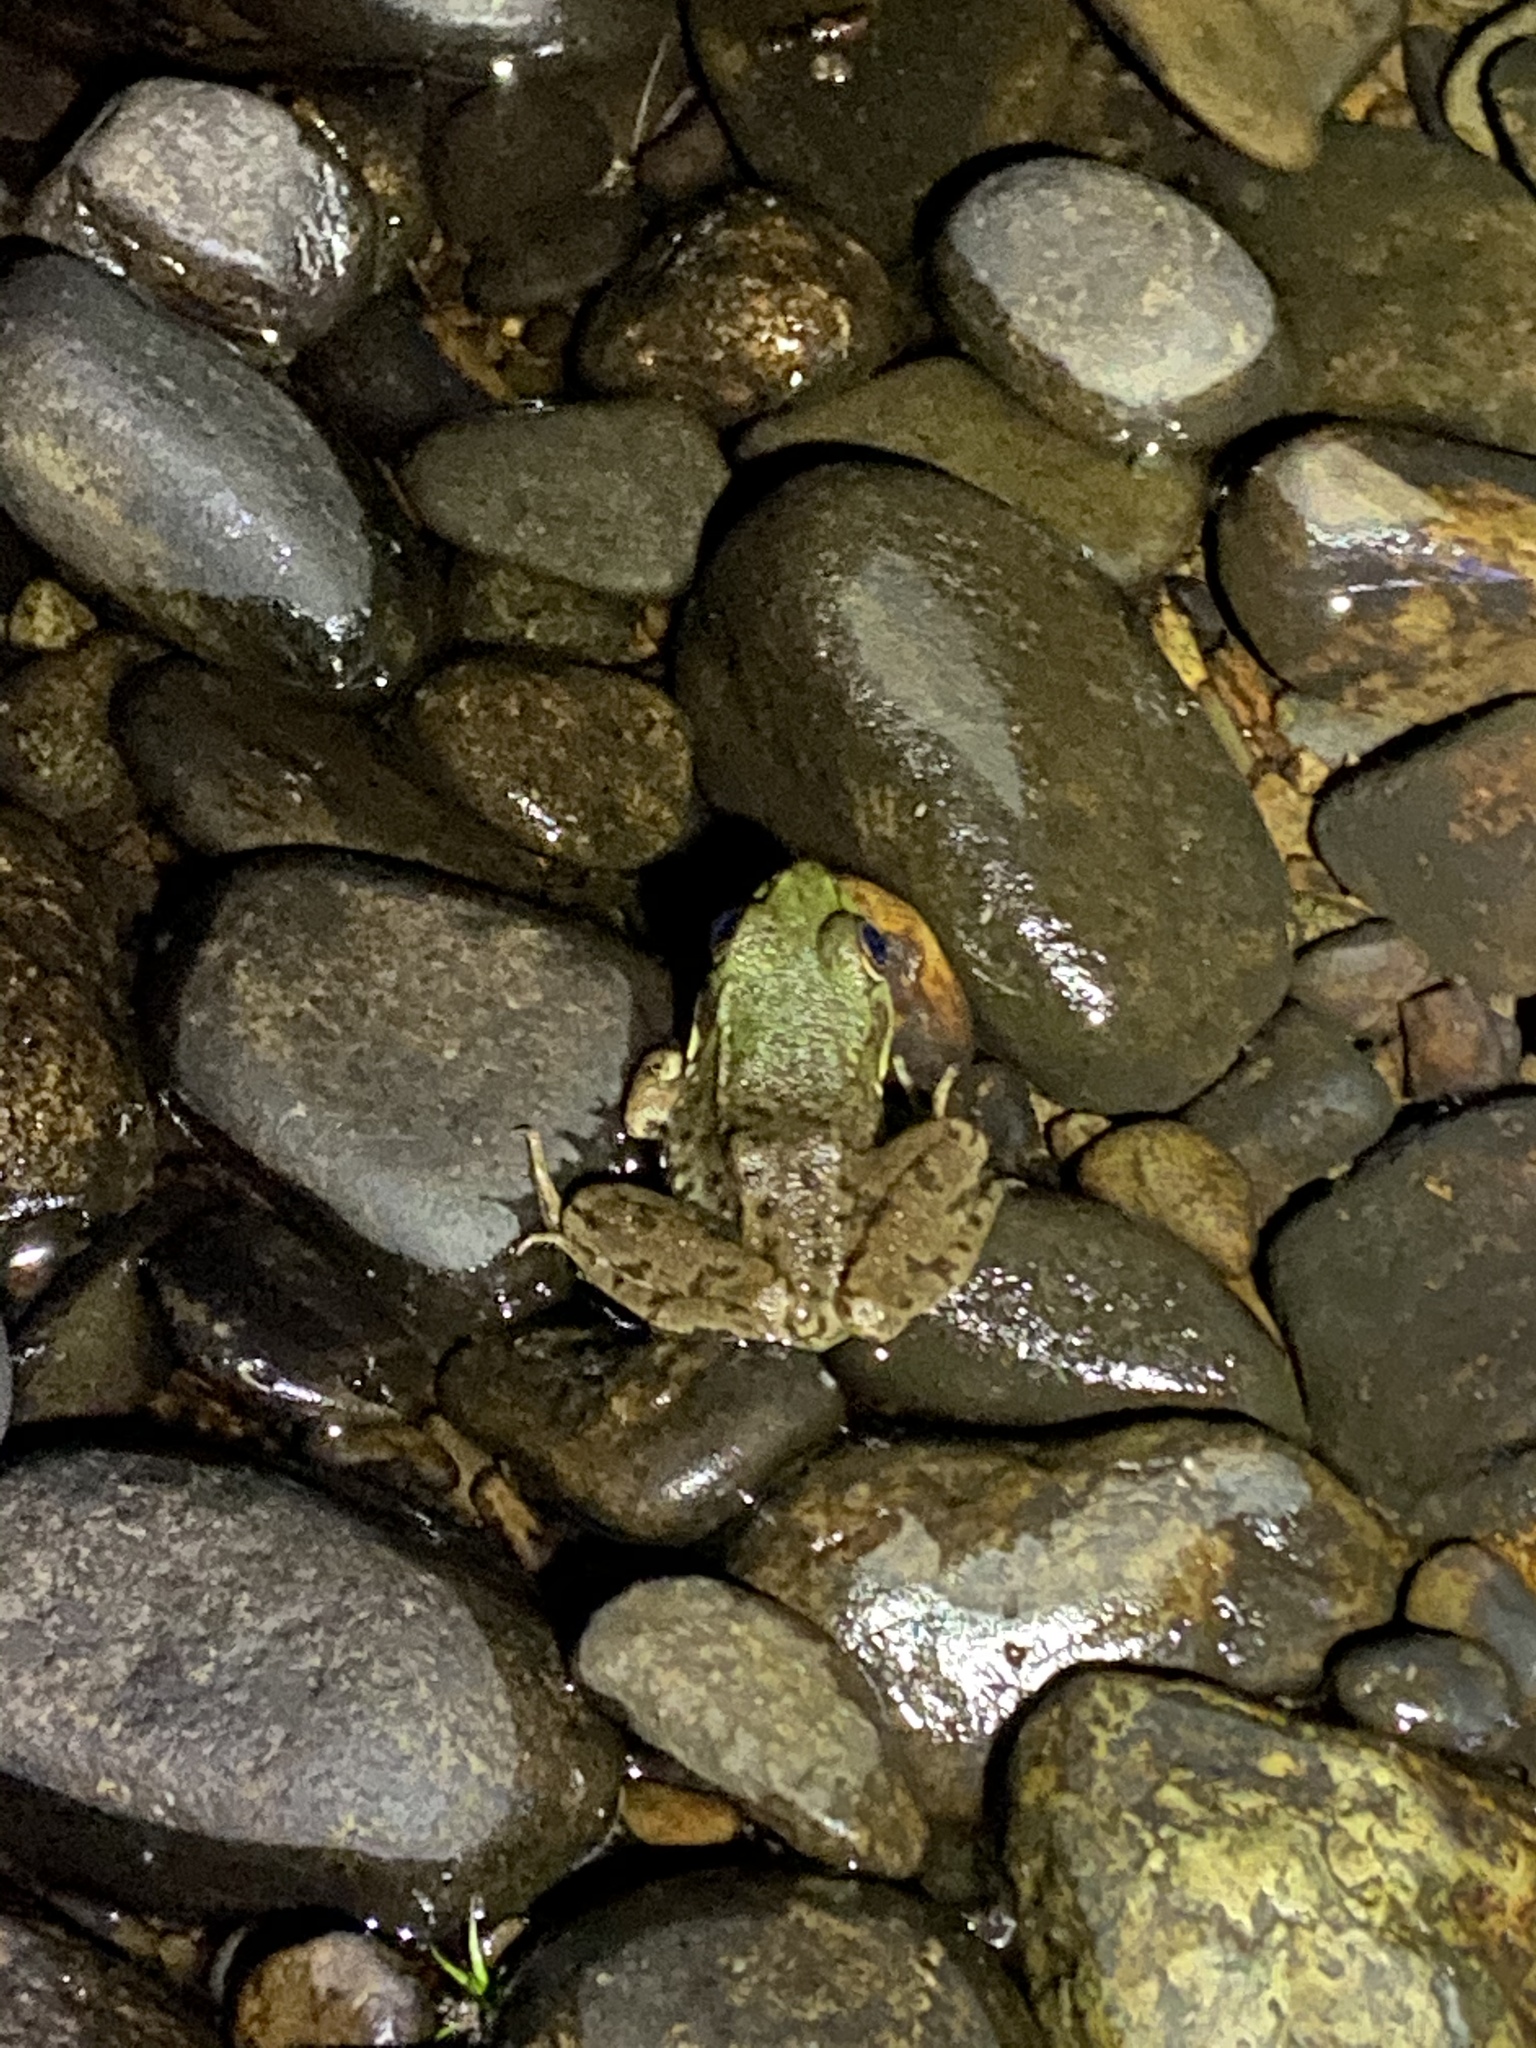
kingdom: Animalia
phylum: Chordata
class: Amphibia
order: Anura
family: Ranidae
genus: Lithobates
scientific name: Lithobates clamitans
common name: Green frog
